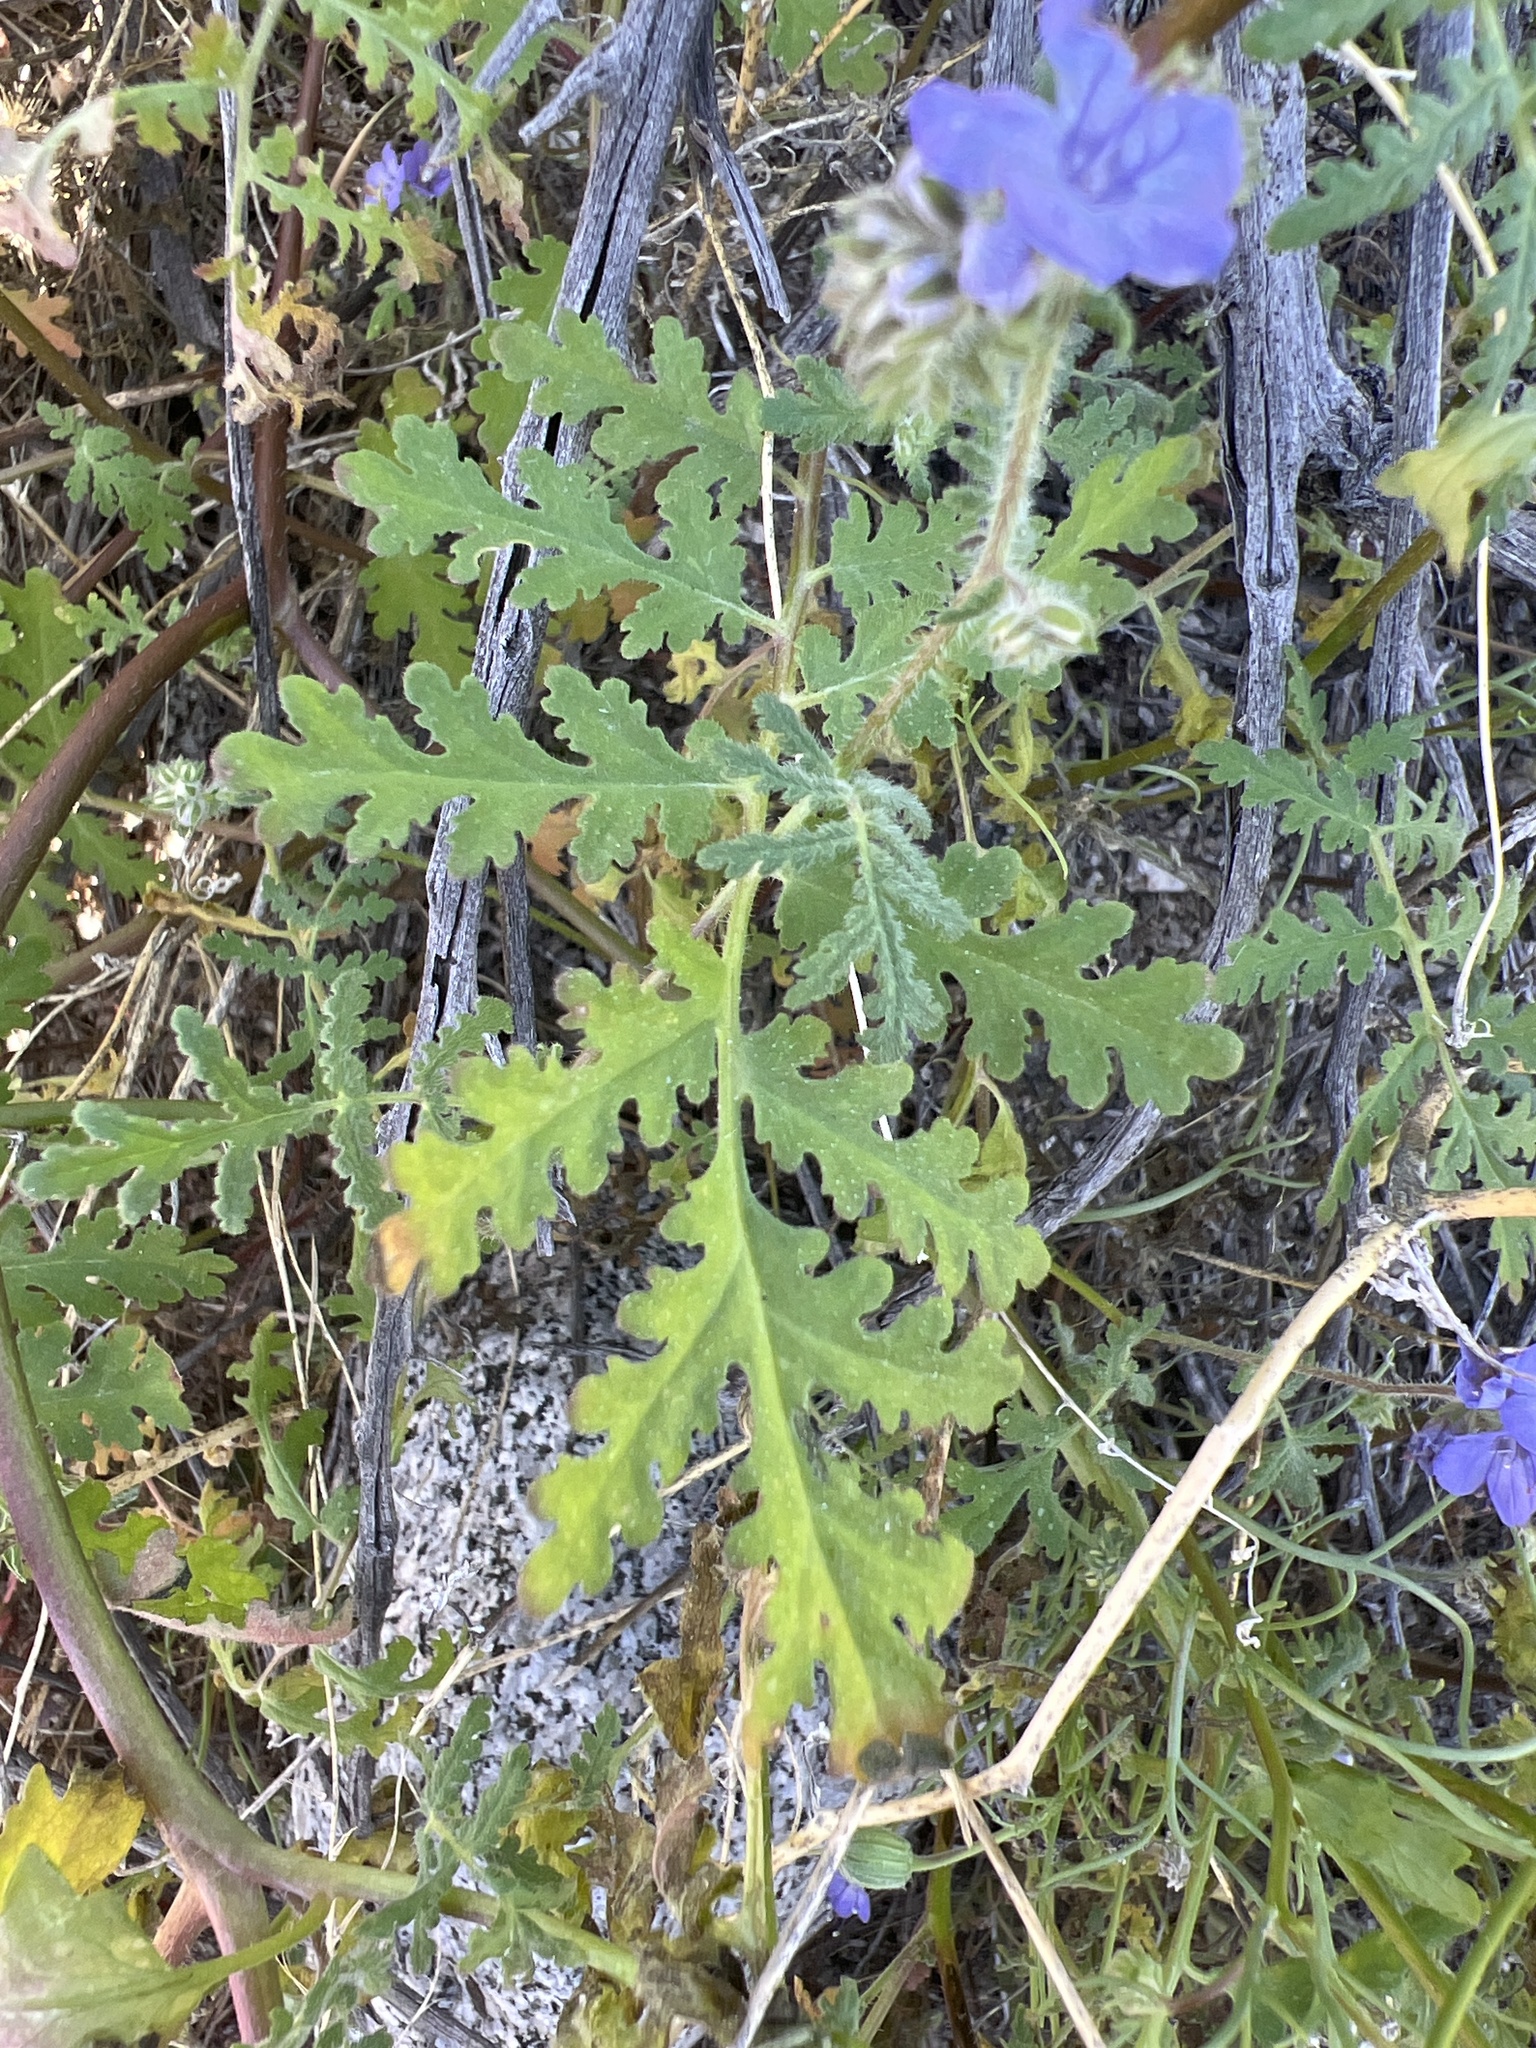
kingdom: Plantae
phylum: Tracheophyta
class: Magnoliopsida
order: Boraginales
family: Hydrophyllaceae
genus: Phacelia
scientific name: Phacelia distans
